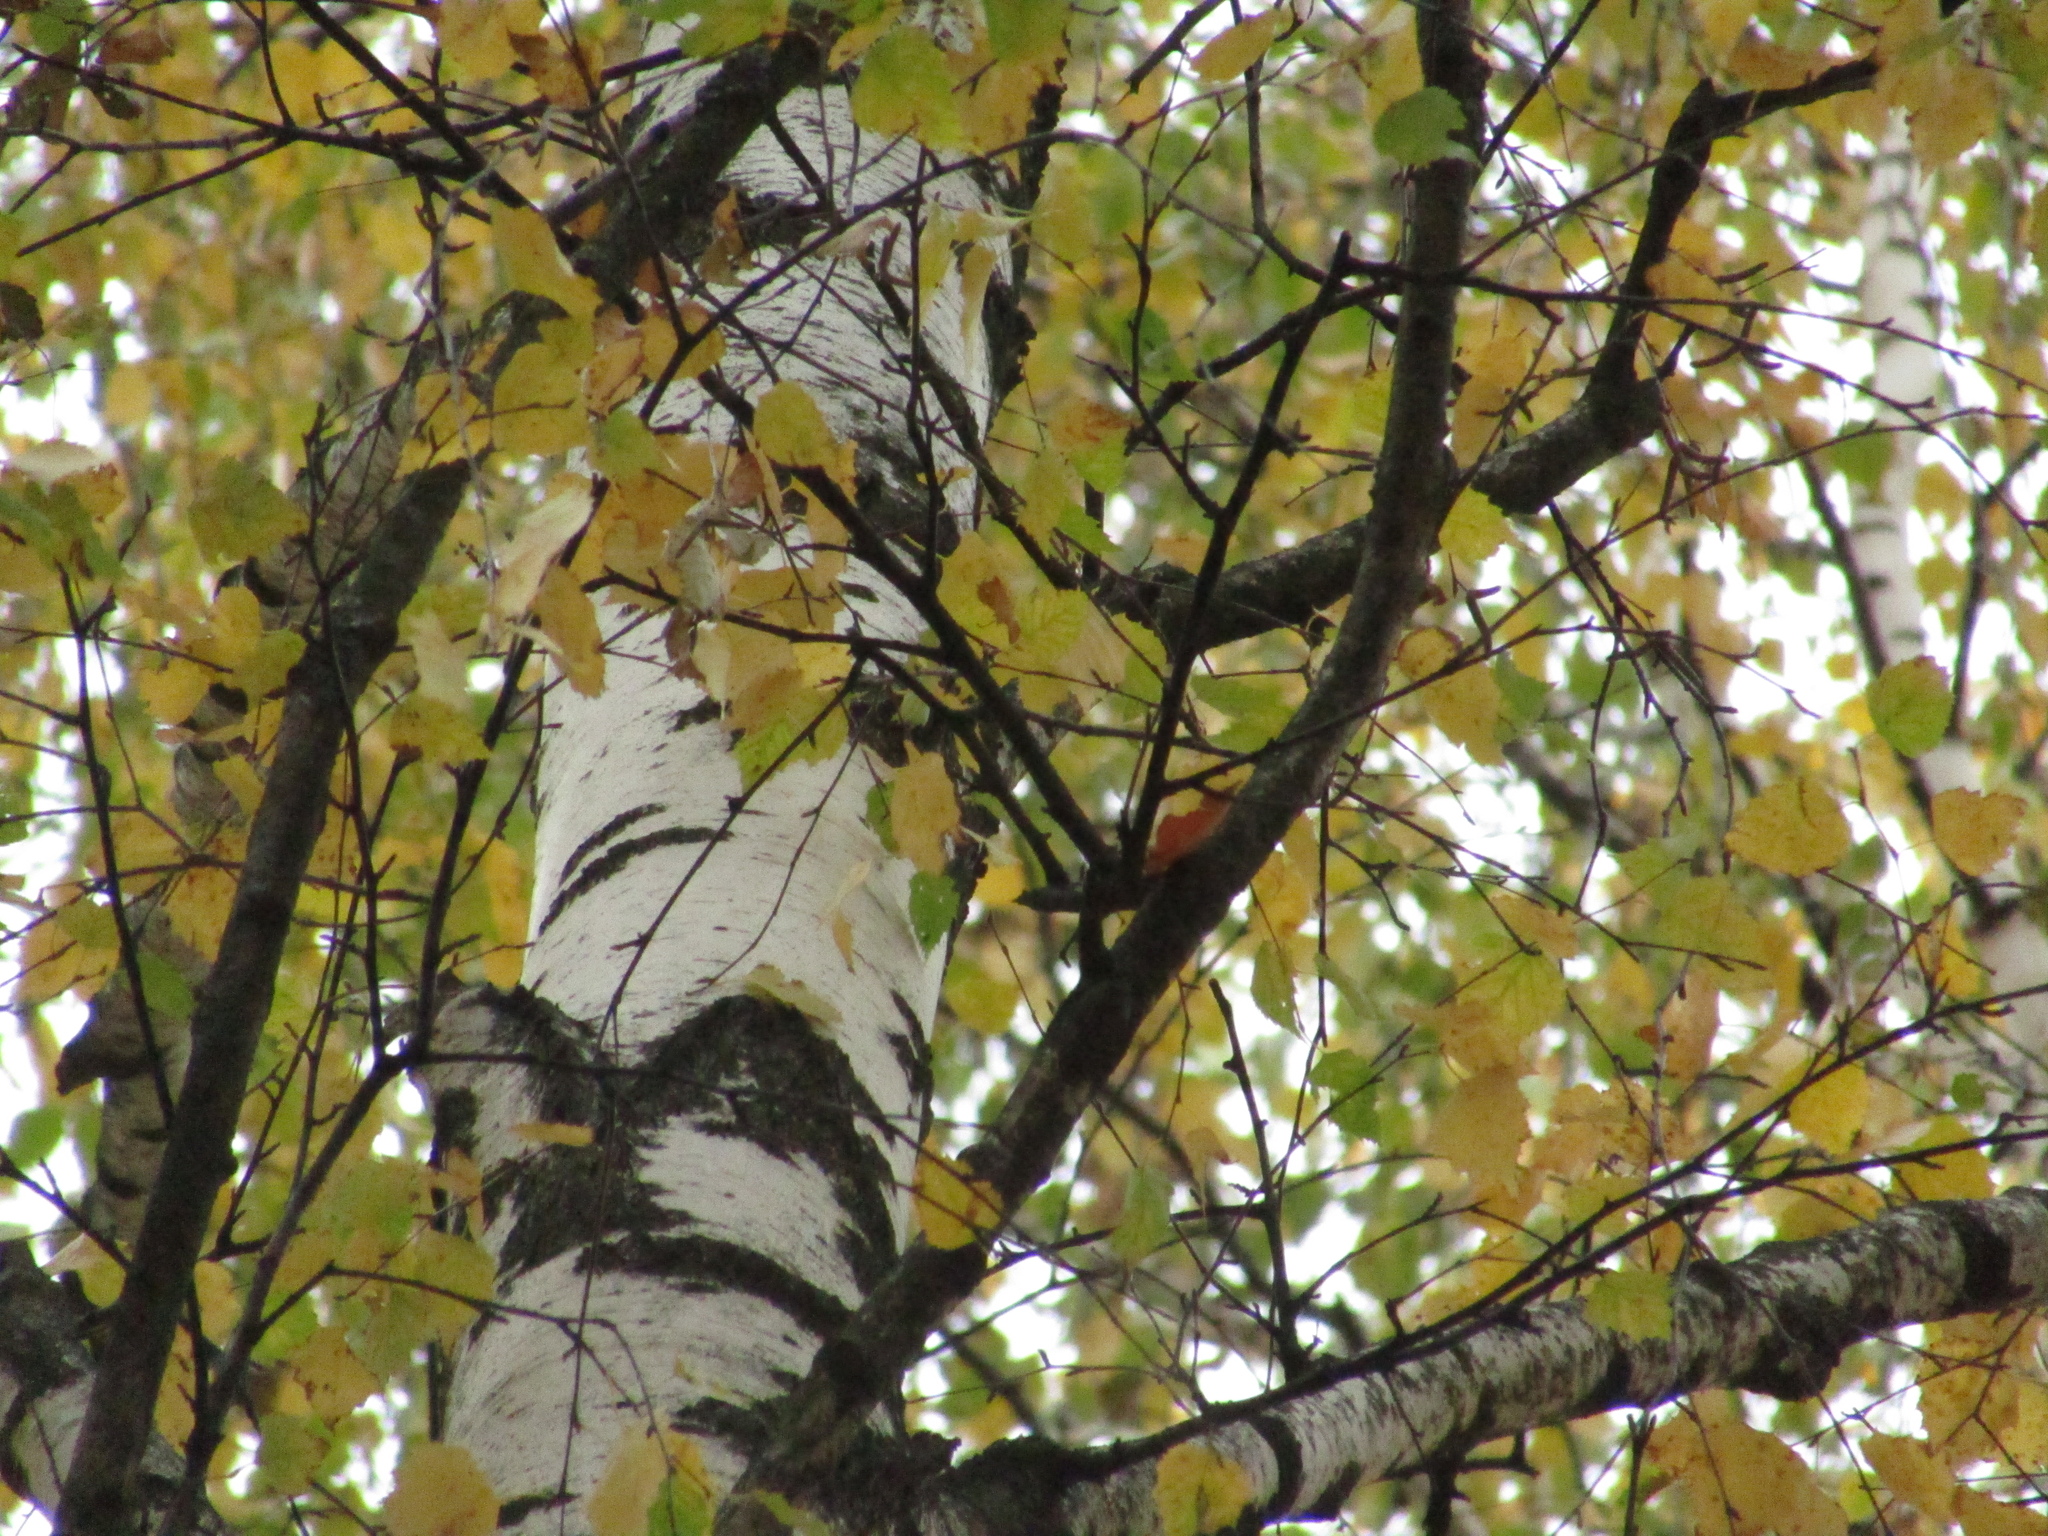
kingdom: Plantae
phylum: Tracheophyta
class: Magnoliopsida
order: Fagales
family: Betulaceae
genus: Betula
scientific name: Betula pendula
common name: Silver birch
